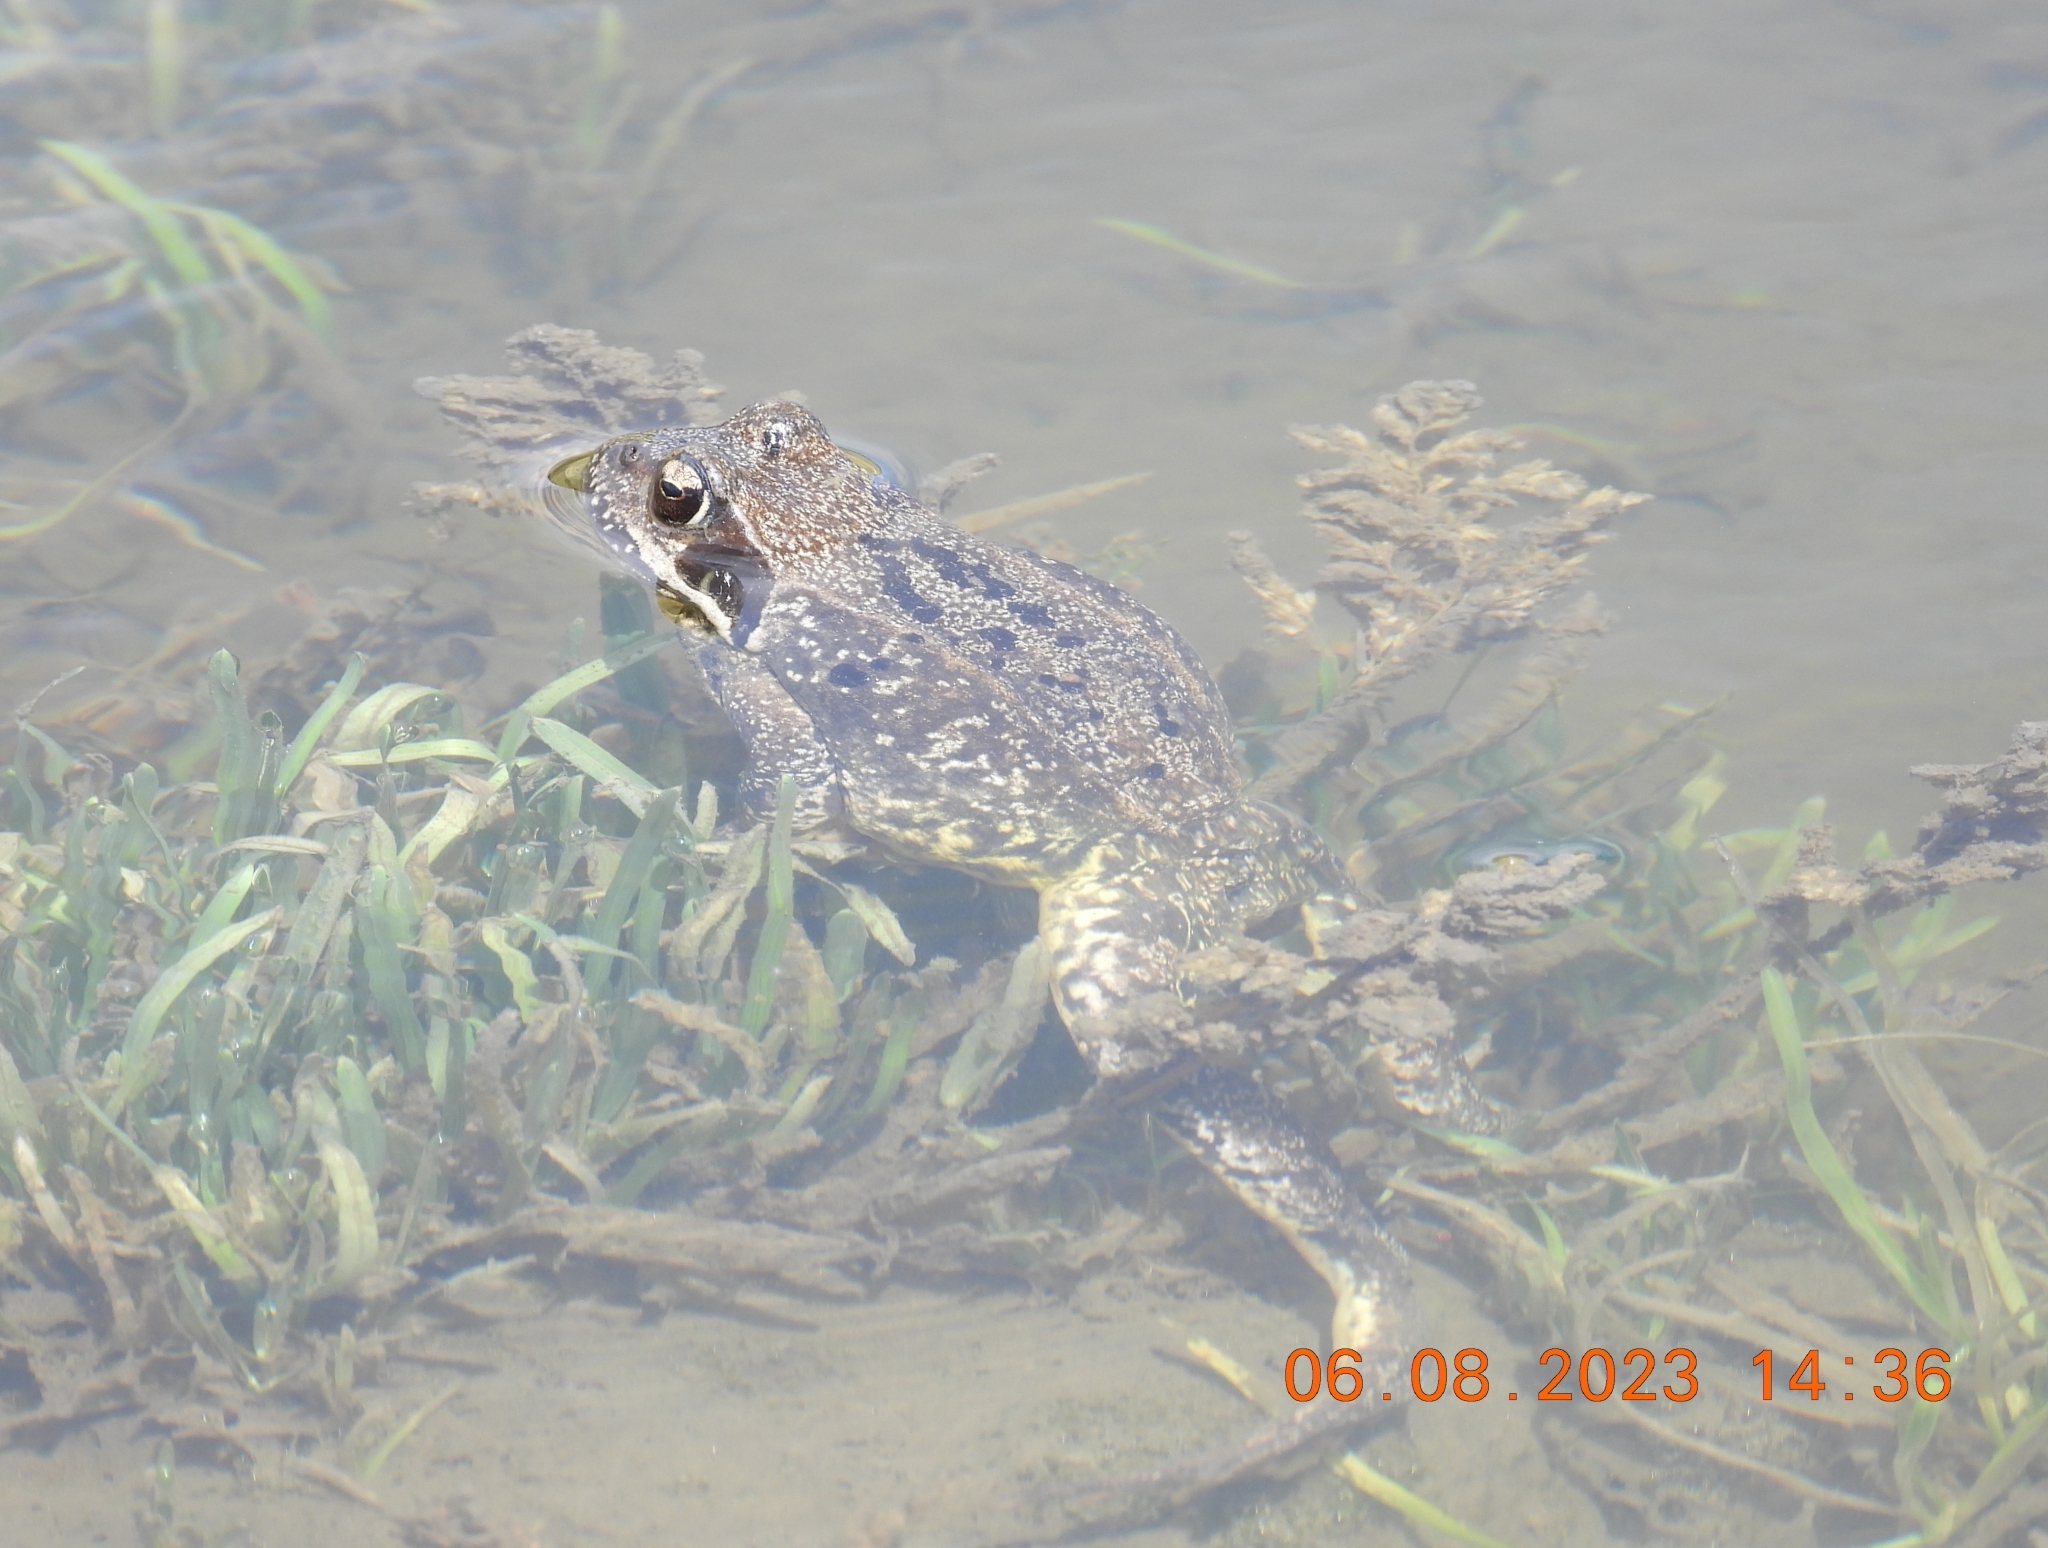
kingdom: Animalia
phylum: Chordata
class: Amphibia
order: Anura
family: Ranidae
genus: Rana
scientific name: Rana temporaria
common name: Common frog
